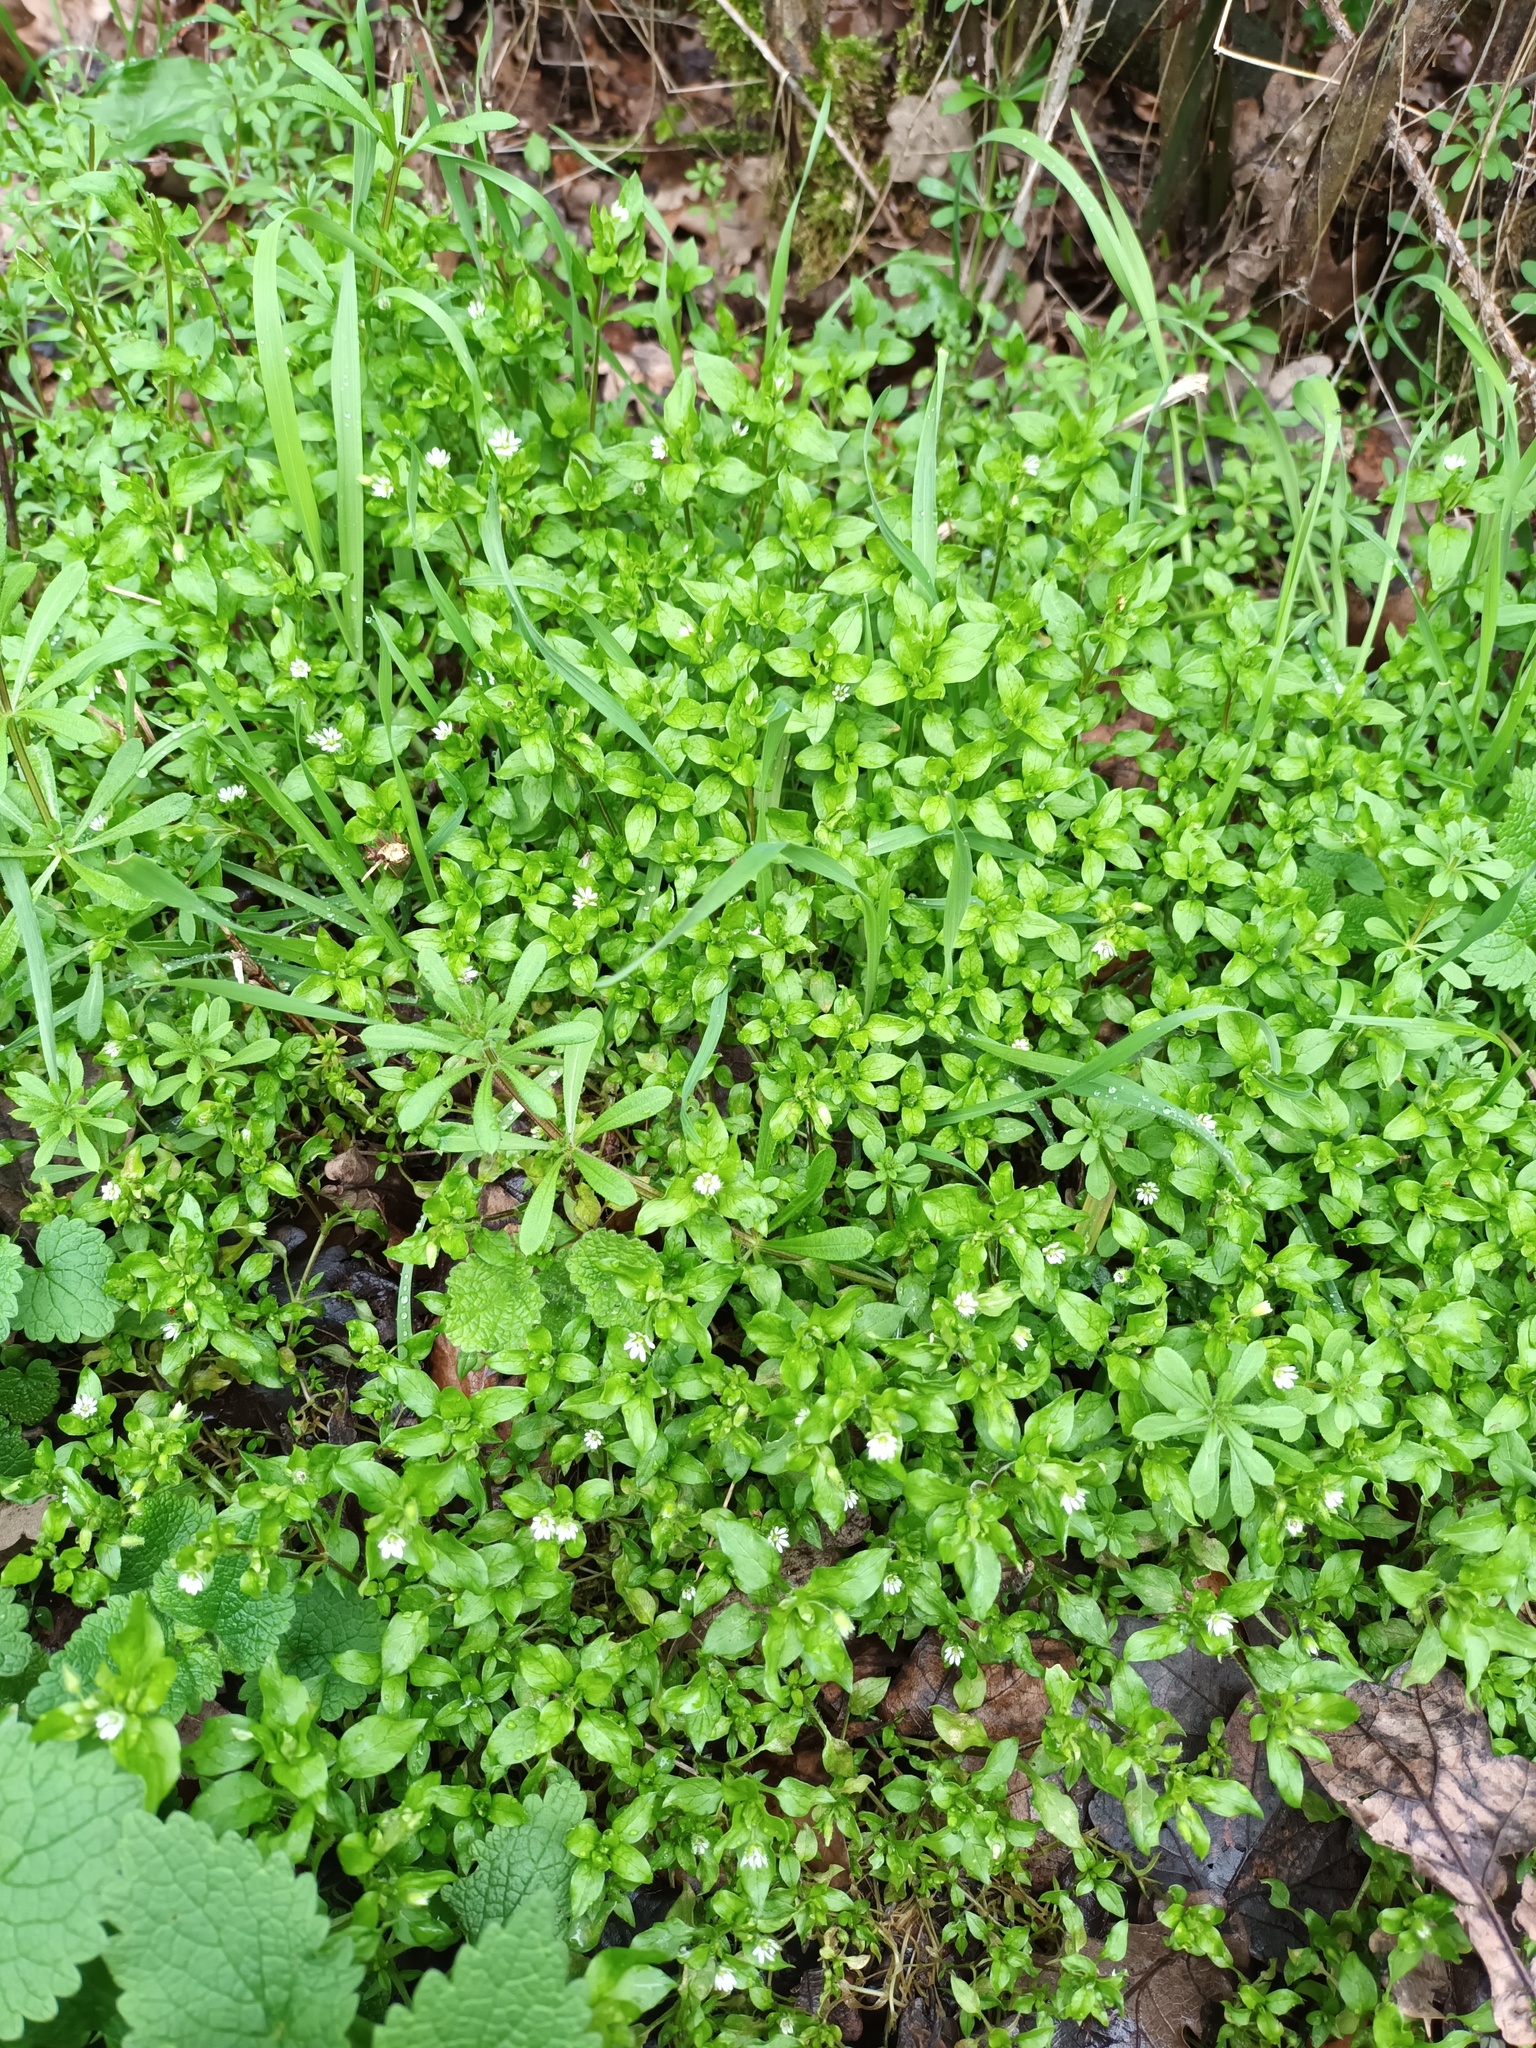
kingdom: Plantae
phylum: Tracheophyta
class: Magnoliopsida
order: Caryophyllales
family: Caryophyllaceae
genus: Stellaria
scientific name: Stellaria media
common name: Common chickweed
